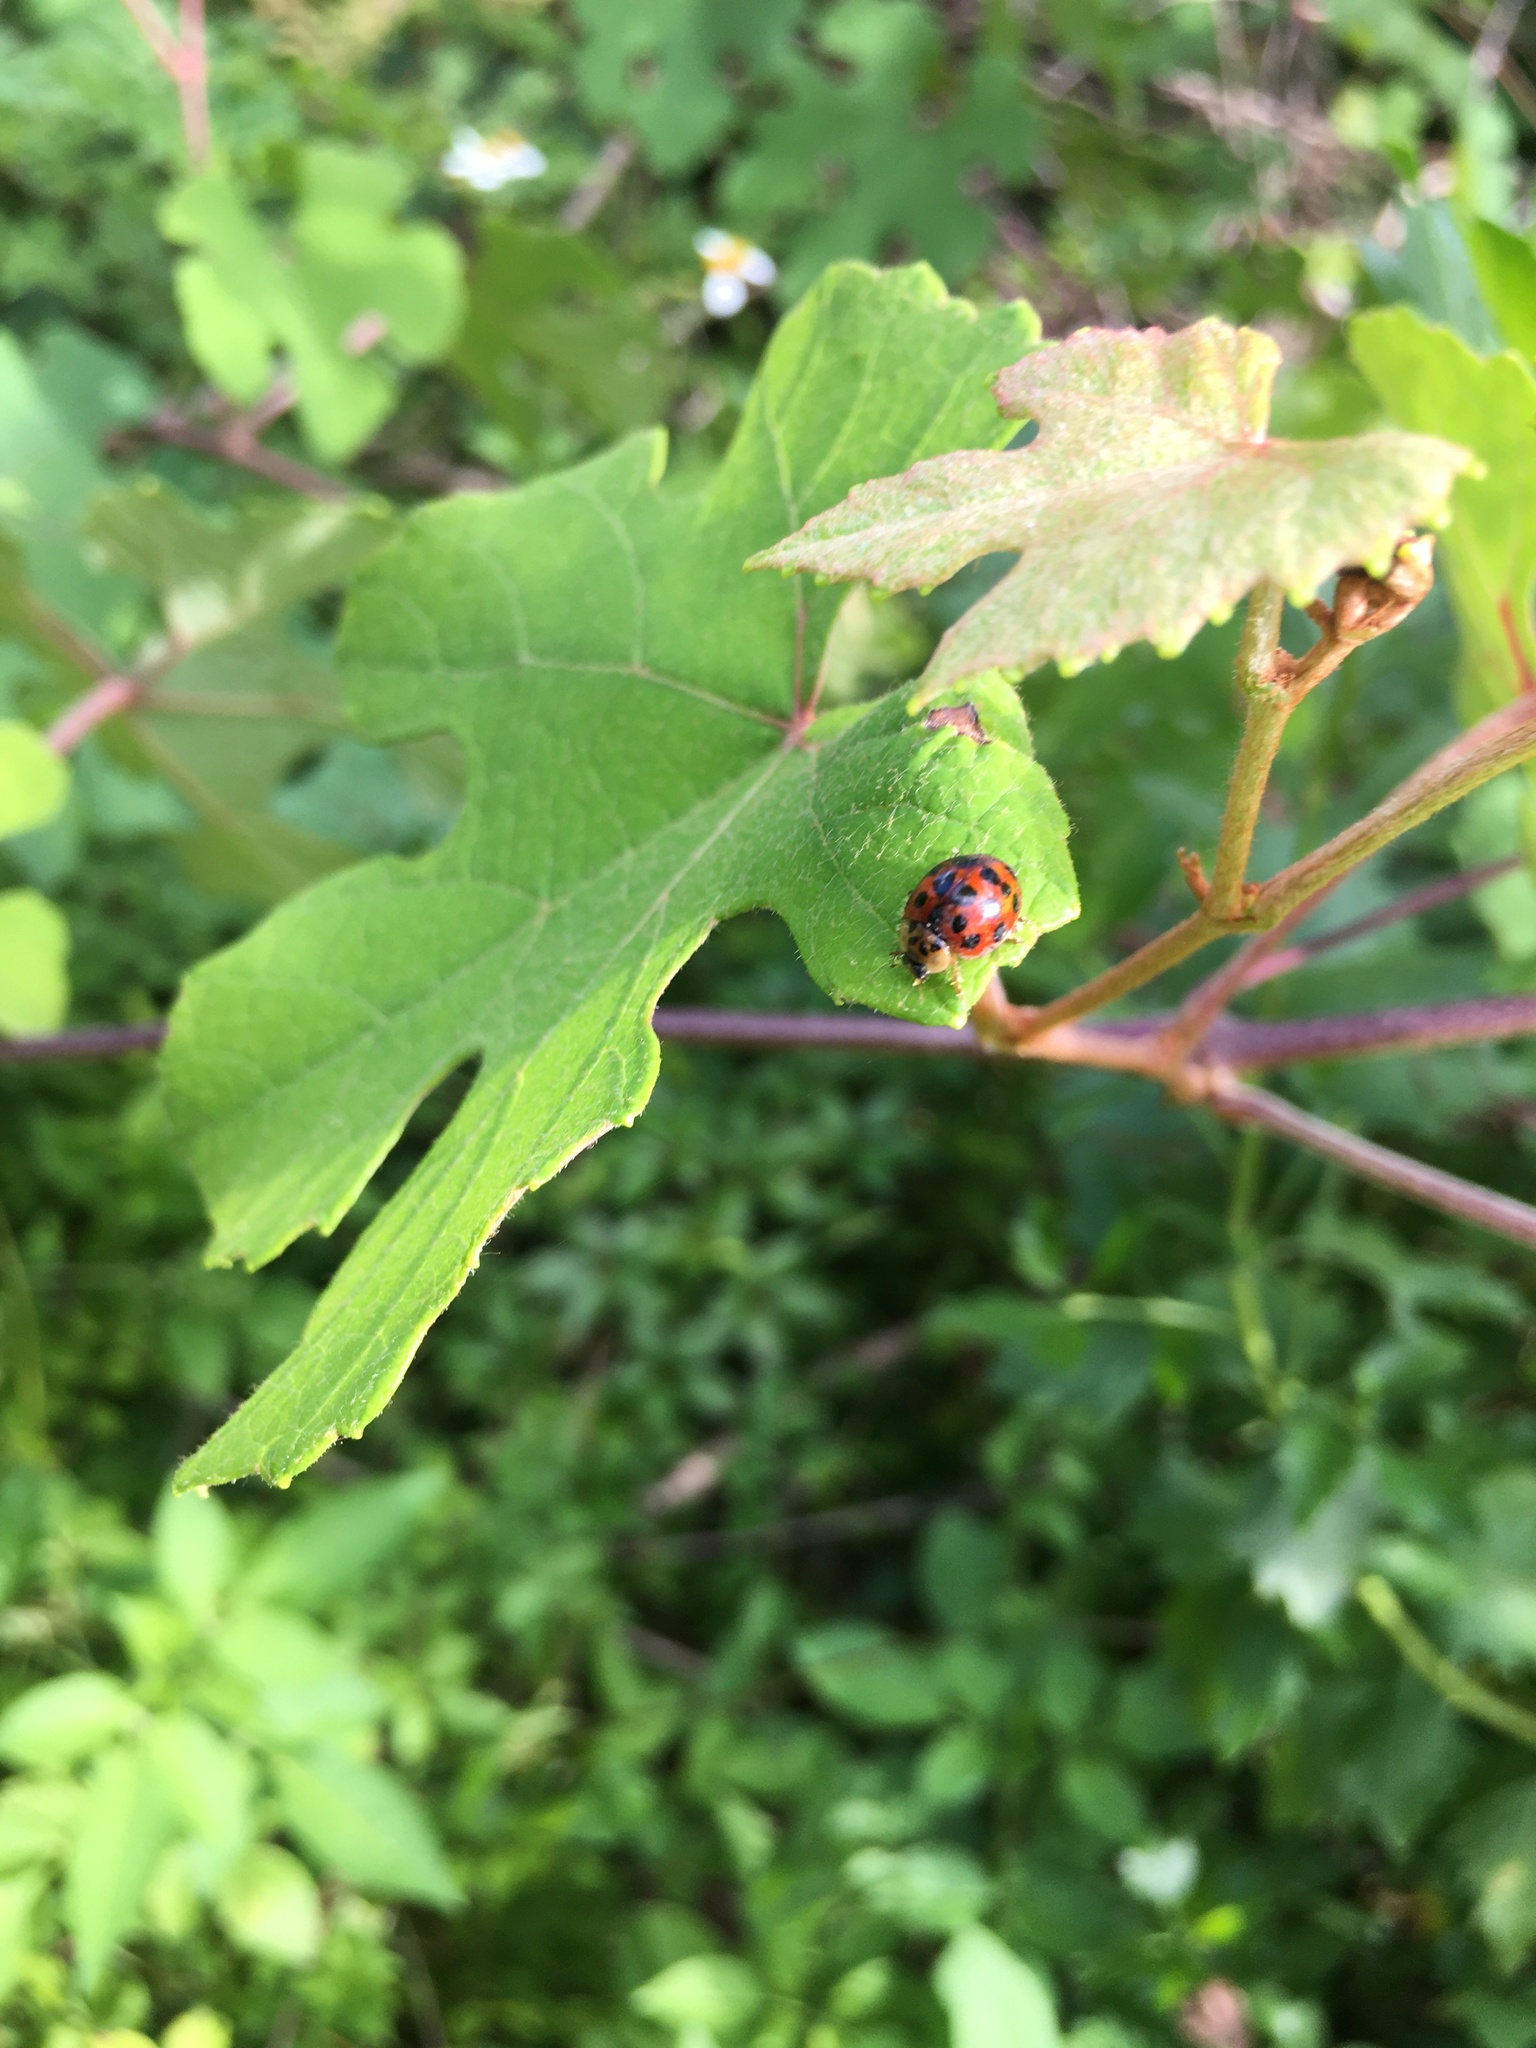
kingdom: Animalia
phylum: Arthropoda
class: Insecta
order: Coleoptera
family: Coccinellidae
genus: Harmonia
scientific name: Harmonia axyridis
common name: Harlequin ladybird
